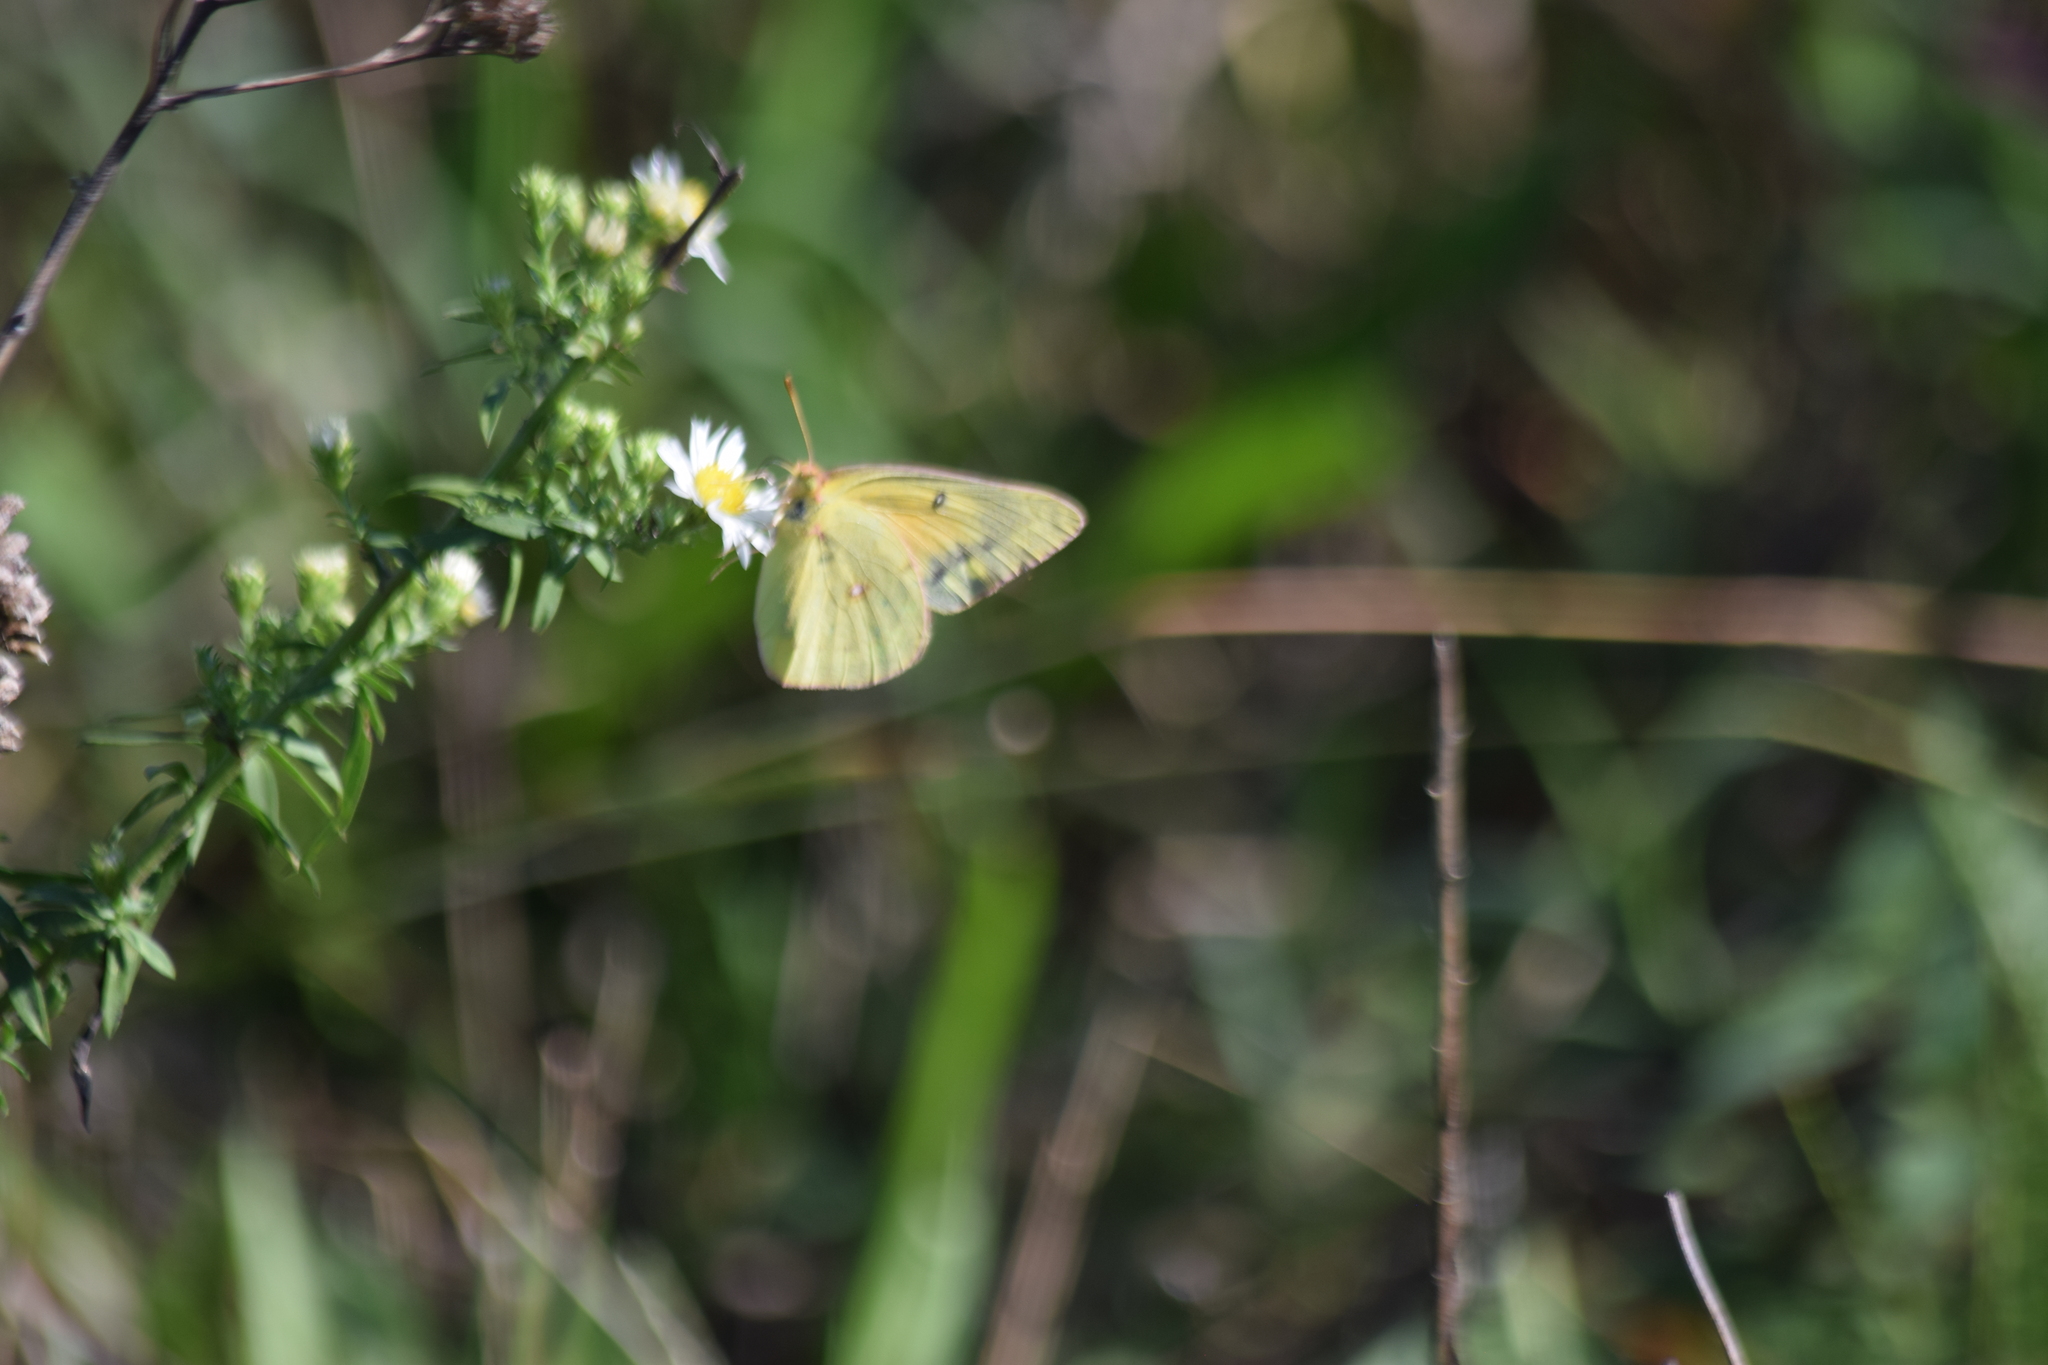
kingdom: Animalia
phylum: Arthropoda
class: Insecta
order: Lepidoptera
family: Pieridae
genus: Colias
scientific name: Colias eurytheme
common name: Alfalfa butterfly
